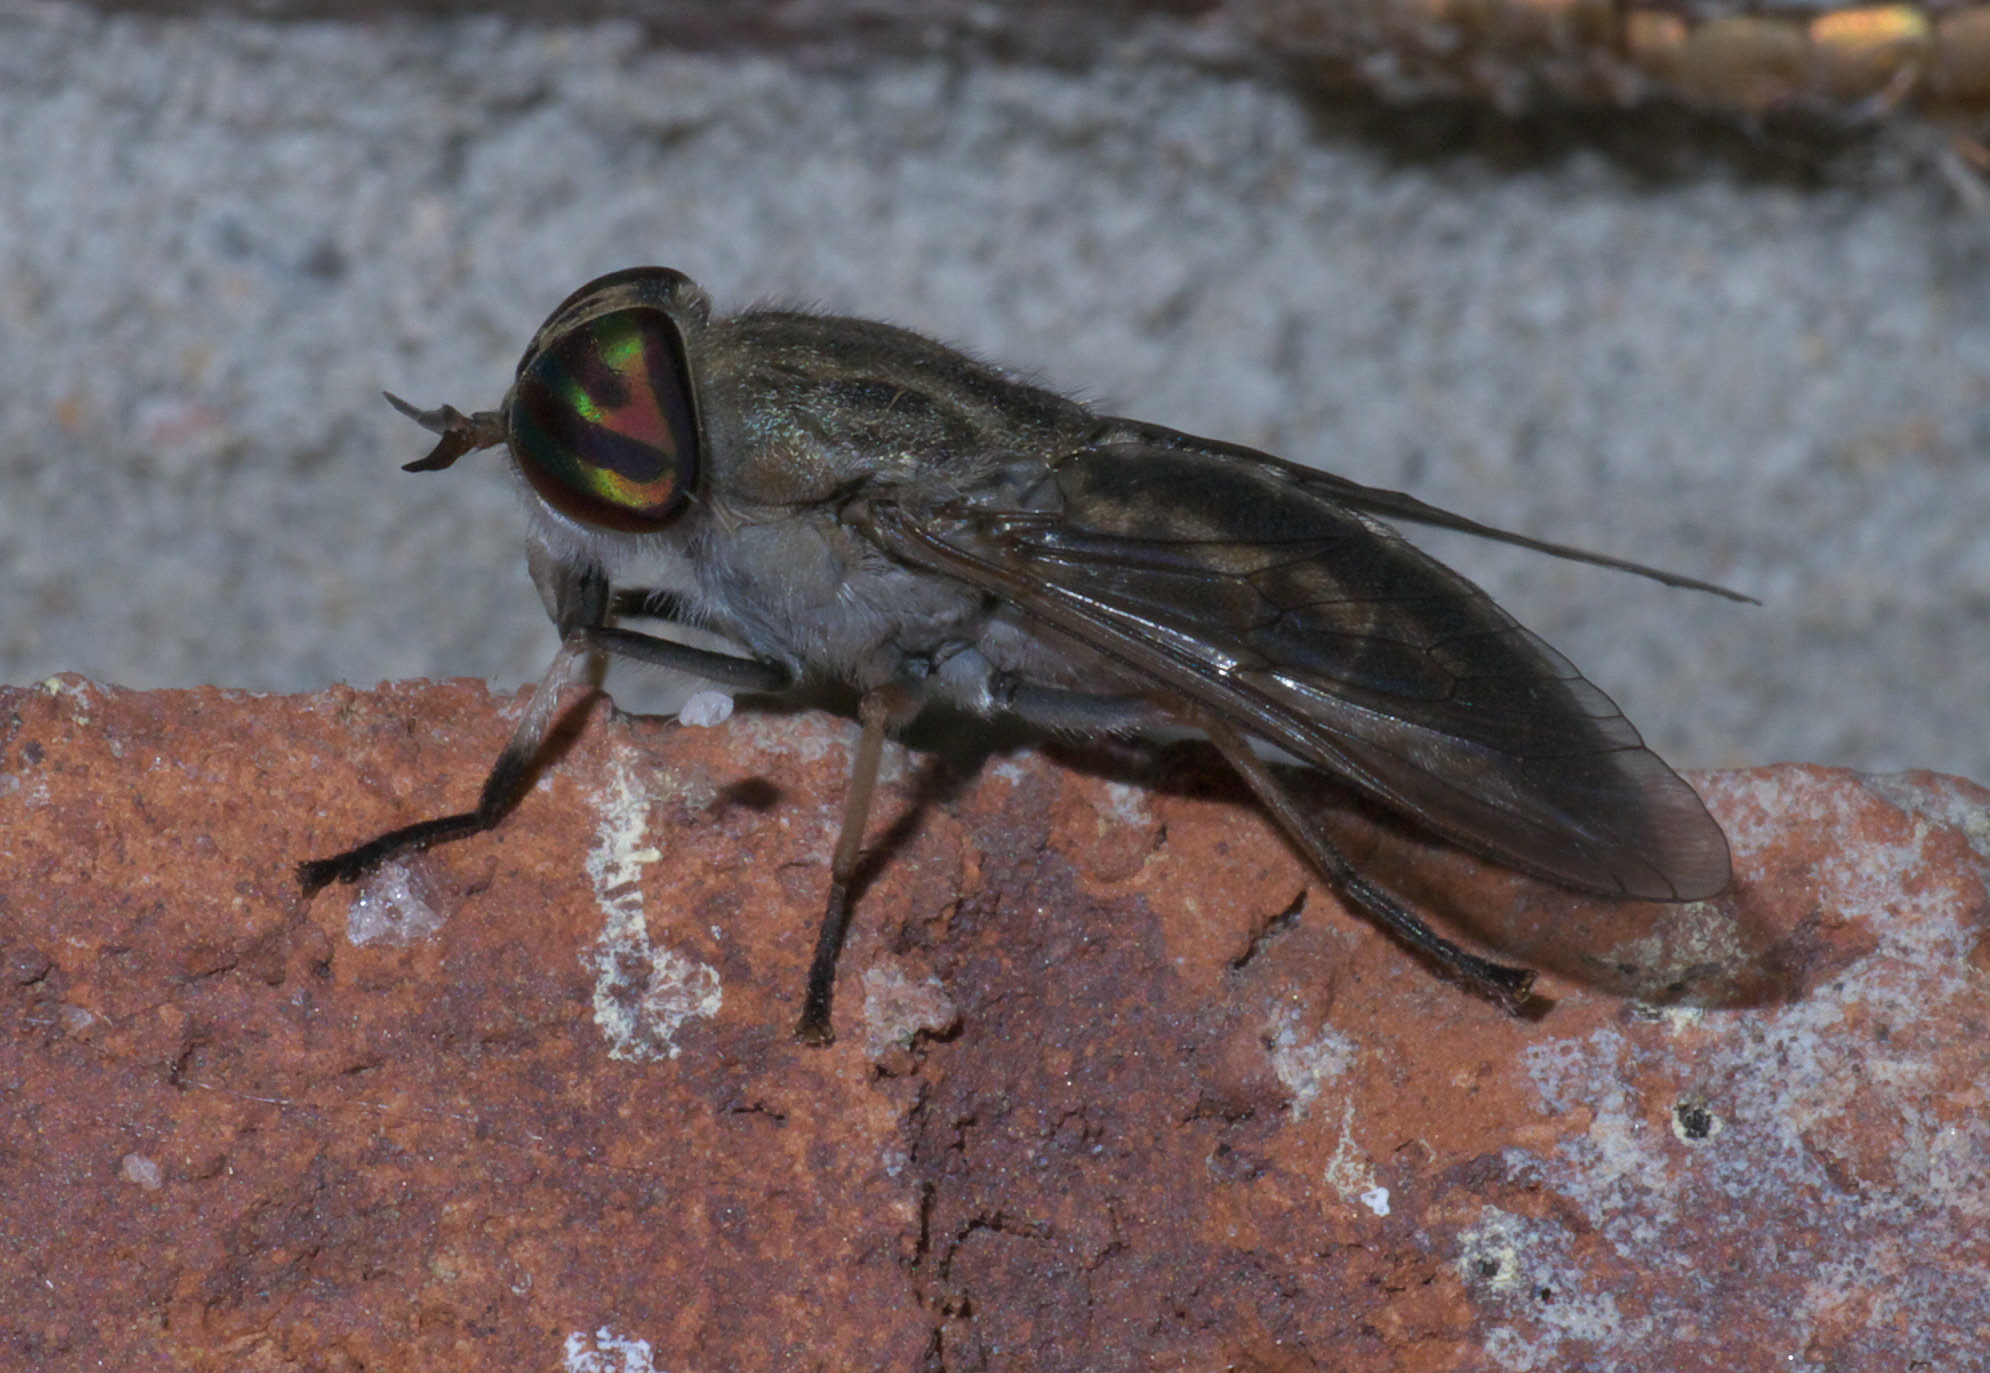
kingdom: Animalia
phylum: Arthropoda
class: Insecta
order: Diptera
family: Tabanidae
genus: Tabanus
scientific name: Tabanus subsimilis
